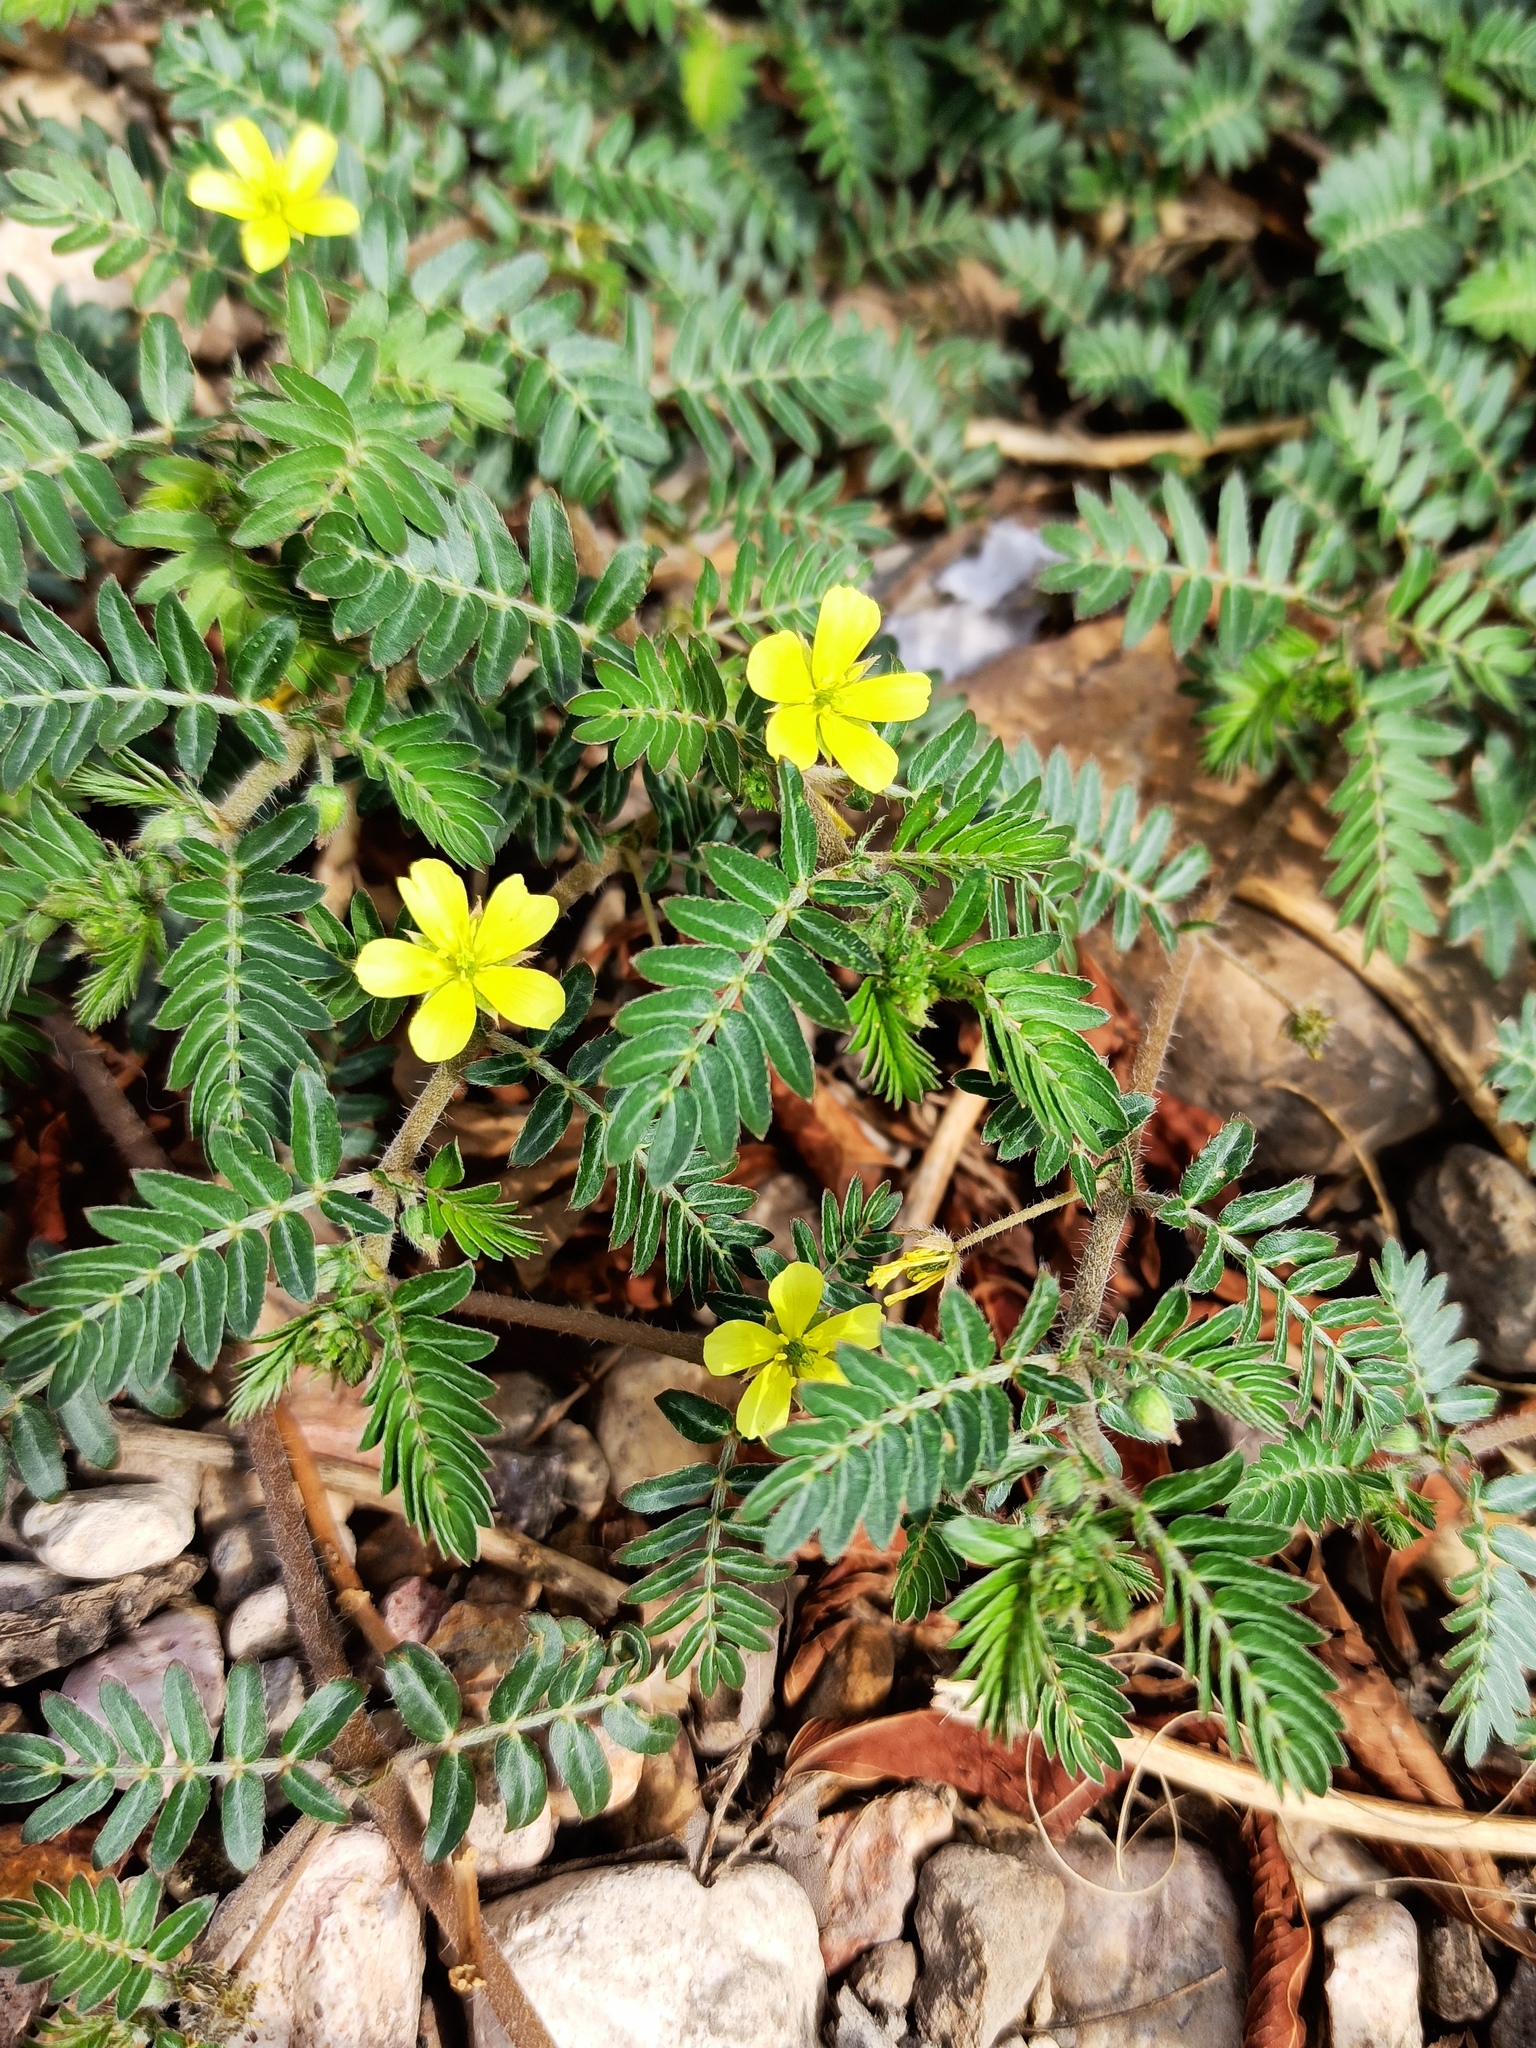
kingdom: Plantae
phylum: Tracheophyta
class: Magnoliopsida
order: Zygophyllales
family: Zygophyllaceae
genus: Tribulus
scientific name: Tribulus terrestris
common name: Puncturevine
